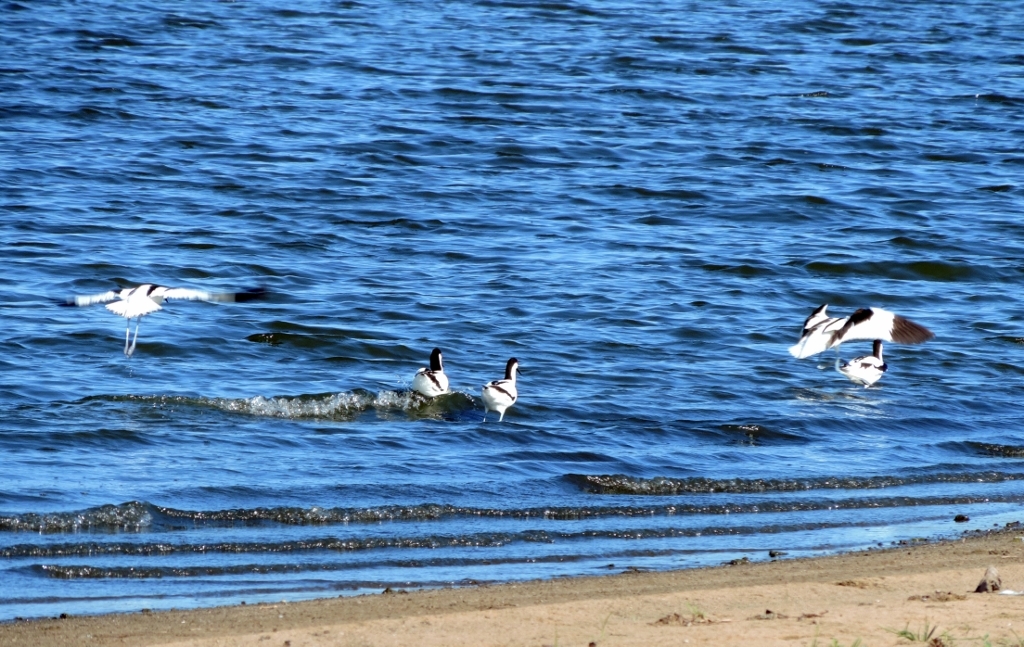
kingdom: Animalia
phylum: Chordata
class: Aves
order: Charadriiformes
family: Recurvirostridae
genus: Recurvirostra
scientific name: Recurvirostra avosetta
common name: Pied avocet
